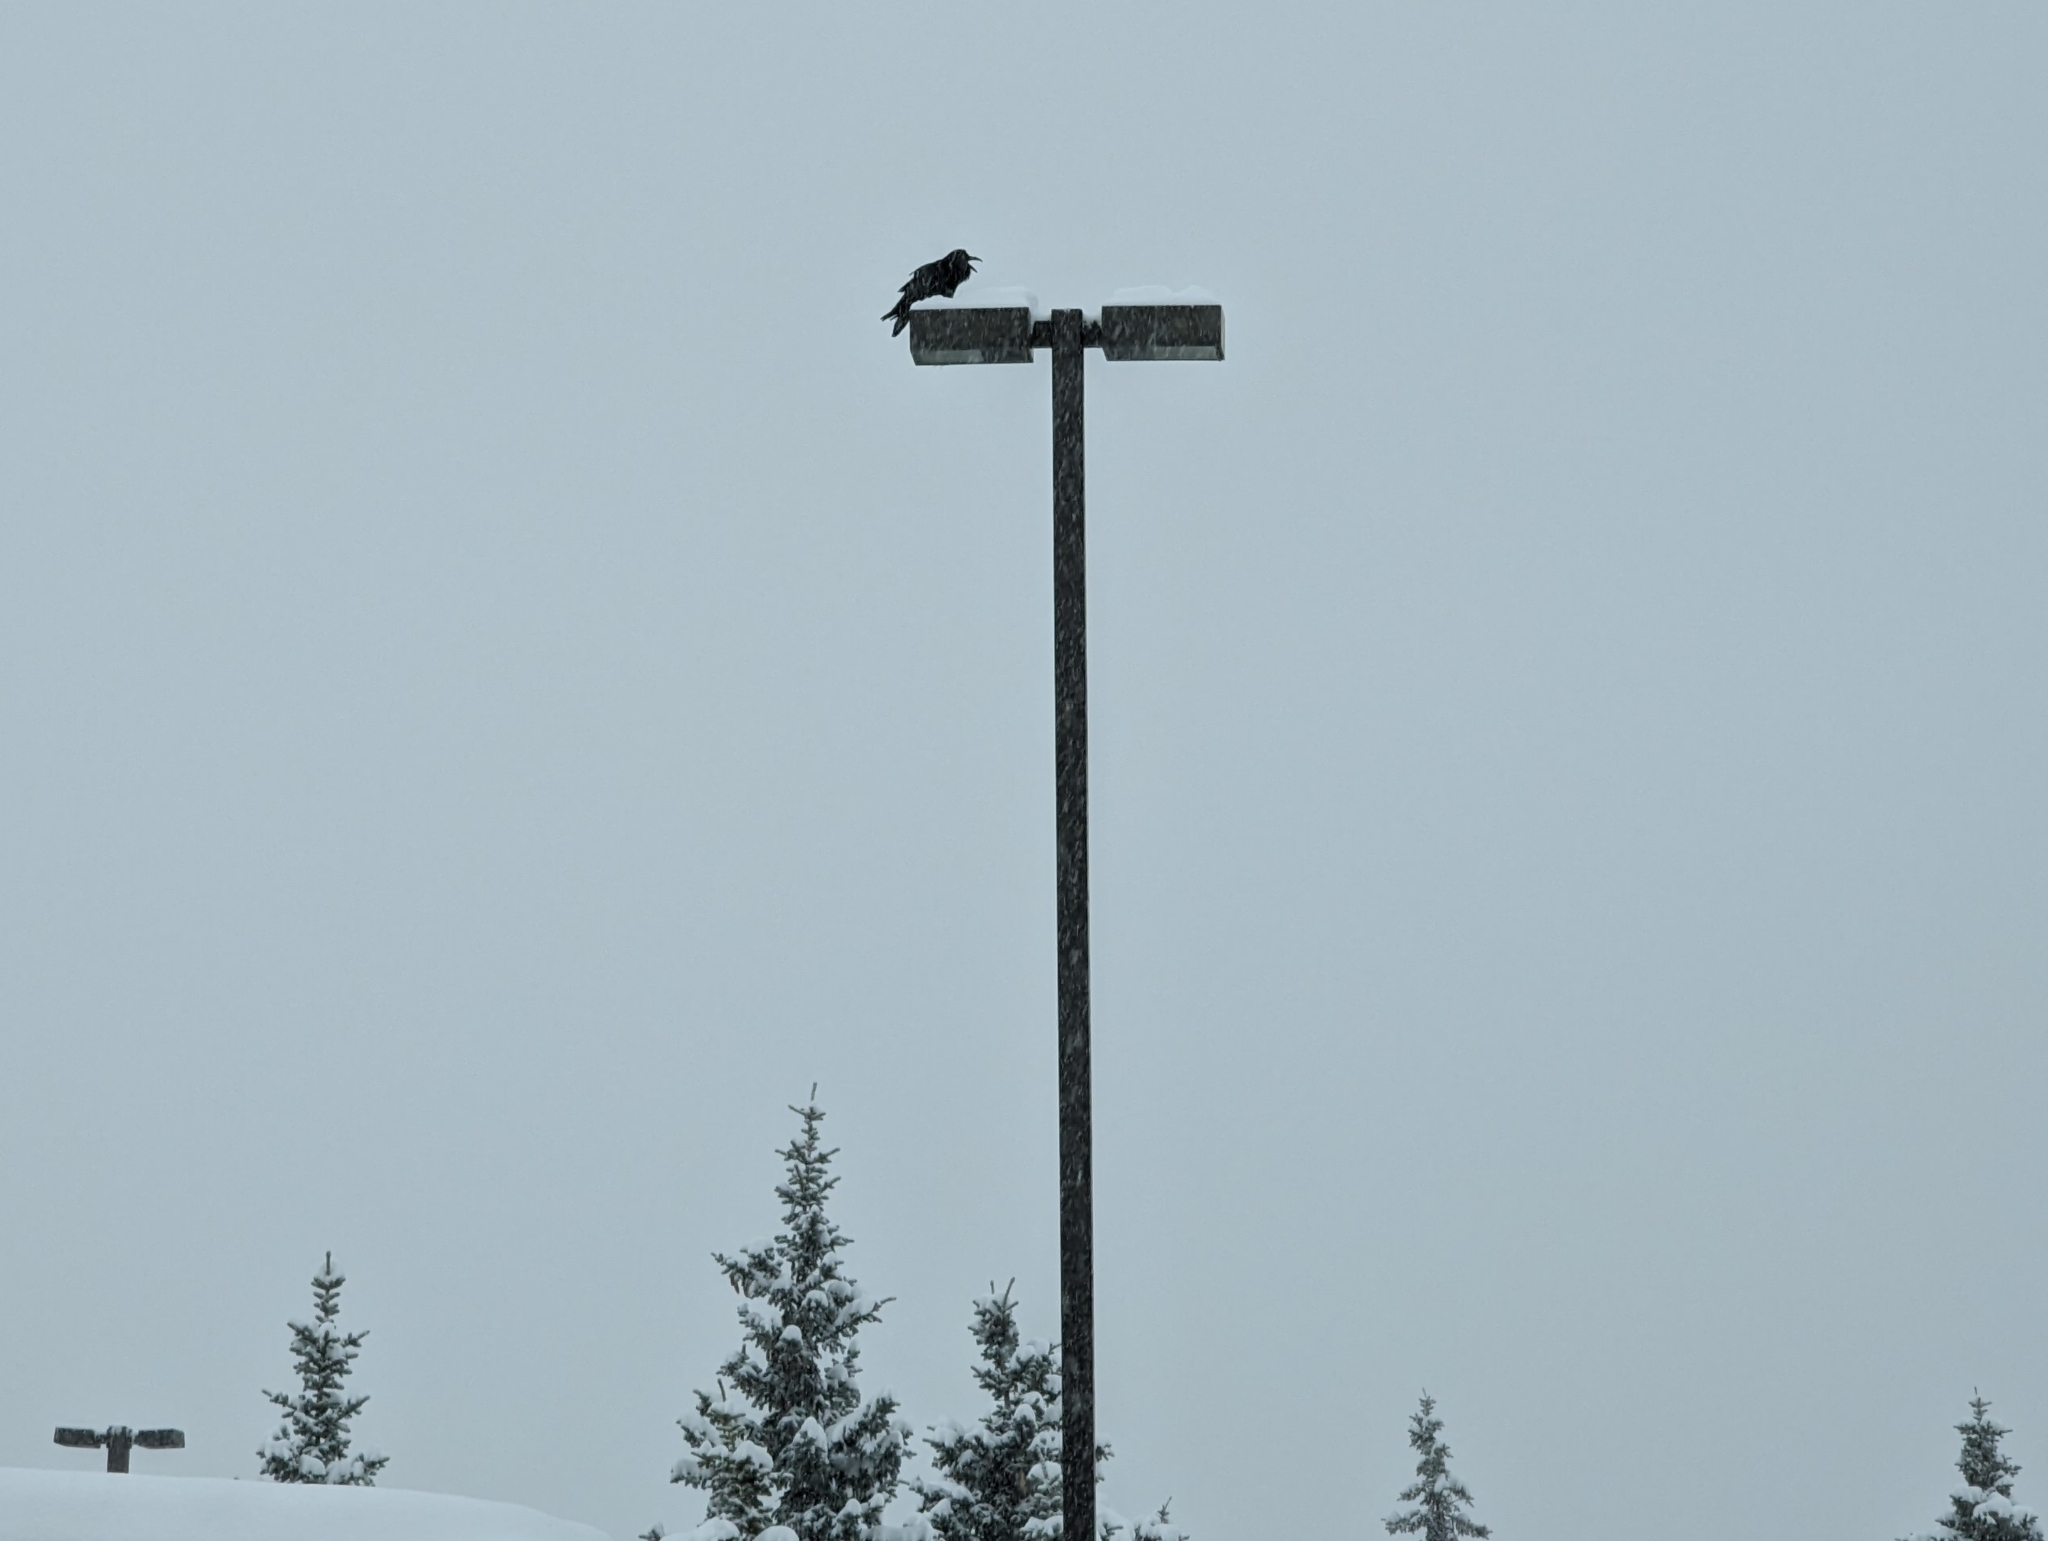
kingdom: Animalia
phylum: Chordata
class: Aves
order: Passeriformes
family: Corvidae
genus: Corvus
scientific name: Corvus corax
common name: Common raven
